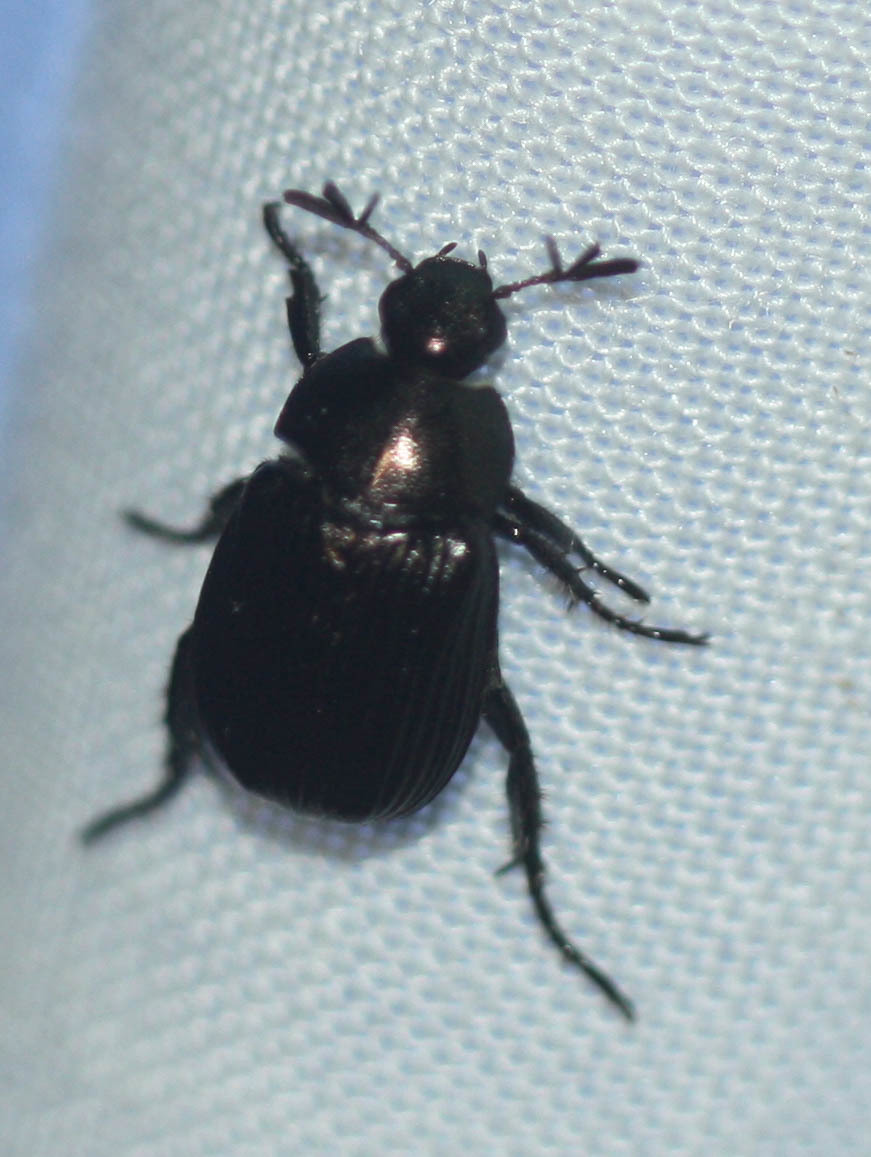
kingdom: Animalia
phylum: Arthropoda
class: Insecta
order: Coleoptera
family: Scarabaeidae
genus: Exomala
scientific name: Exomala orientalis
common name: Oriental beetle
